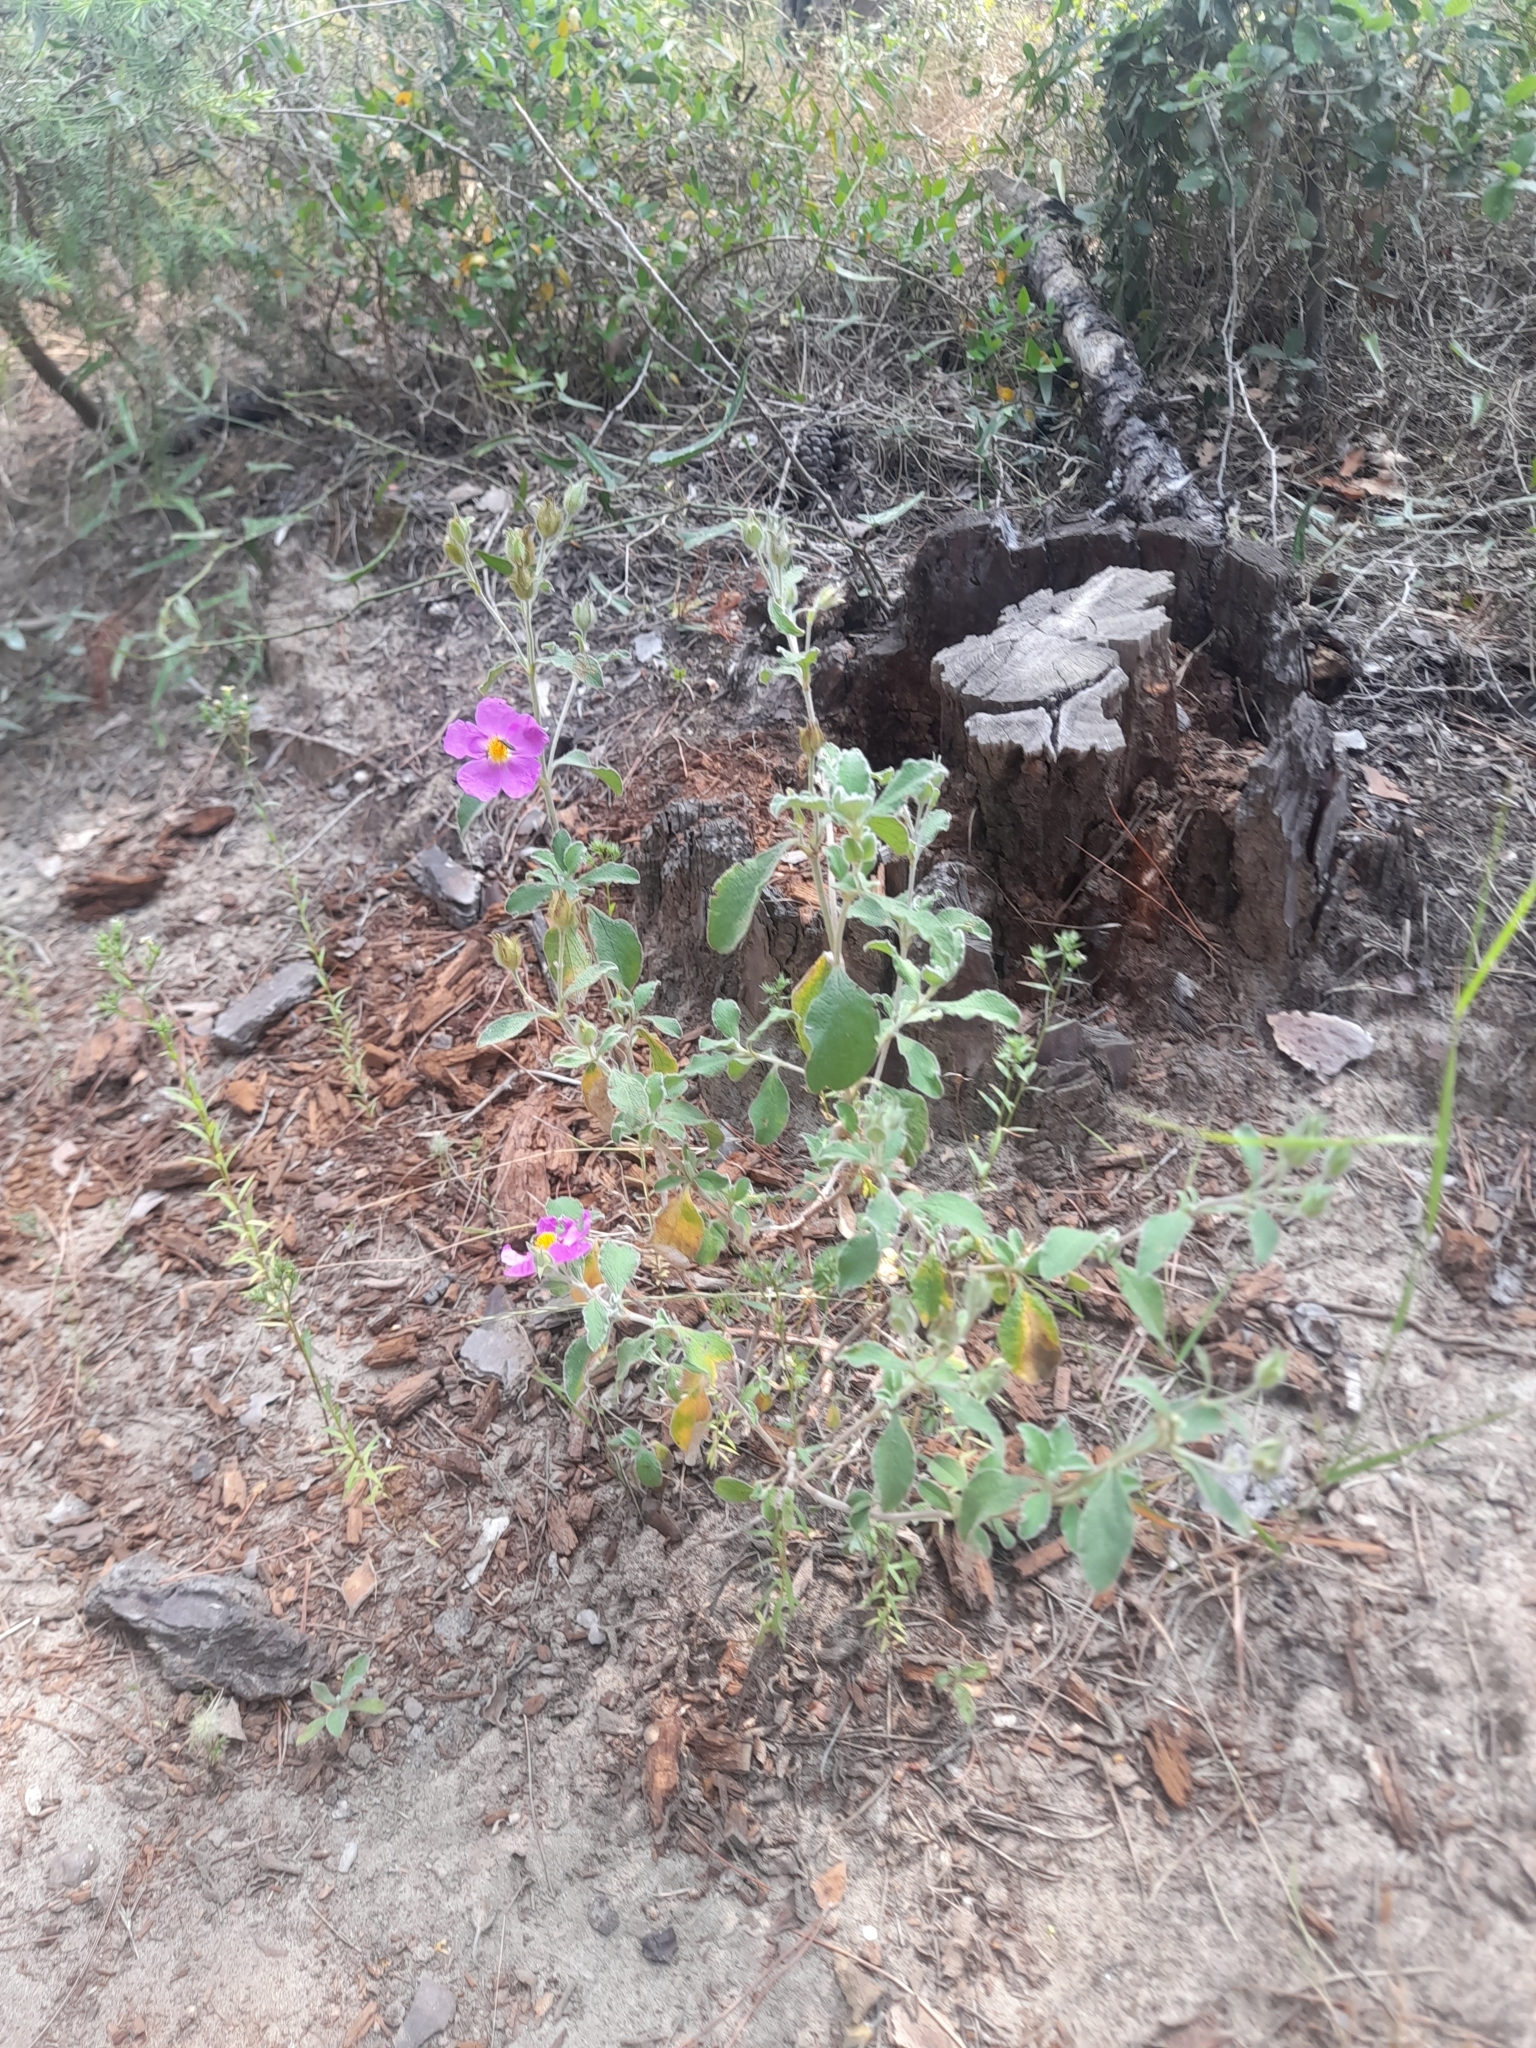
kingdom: Plantae
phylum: Tracheophyta
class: Magnoliopsida
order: Malvales
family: Cistaceae
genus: Cistus
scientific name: Cistus creticus
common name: Cretan rockrose
